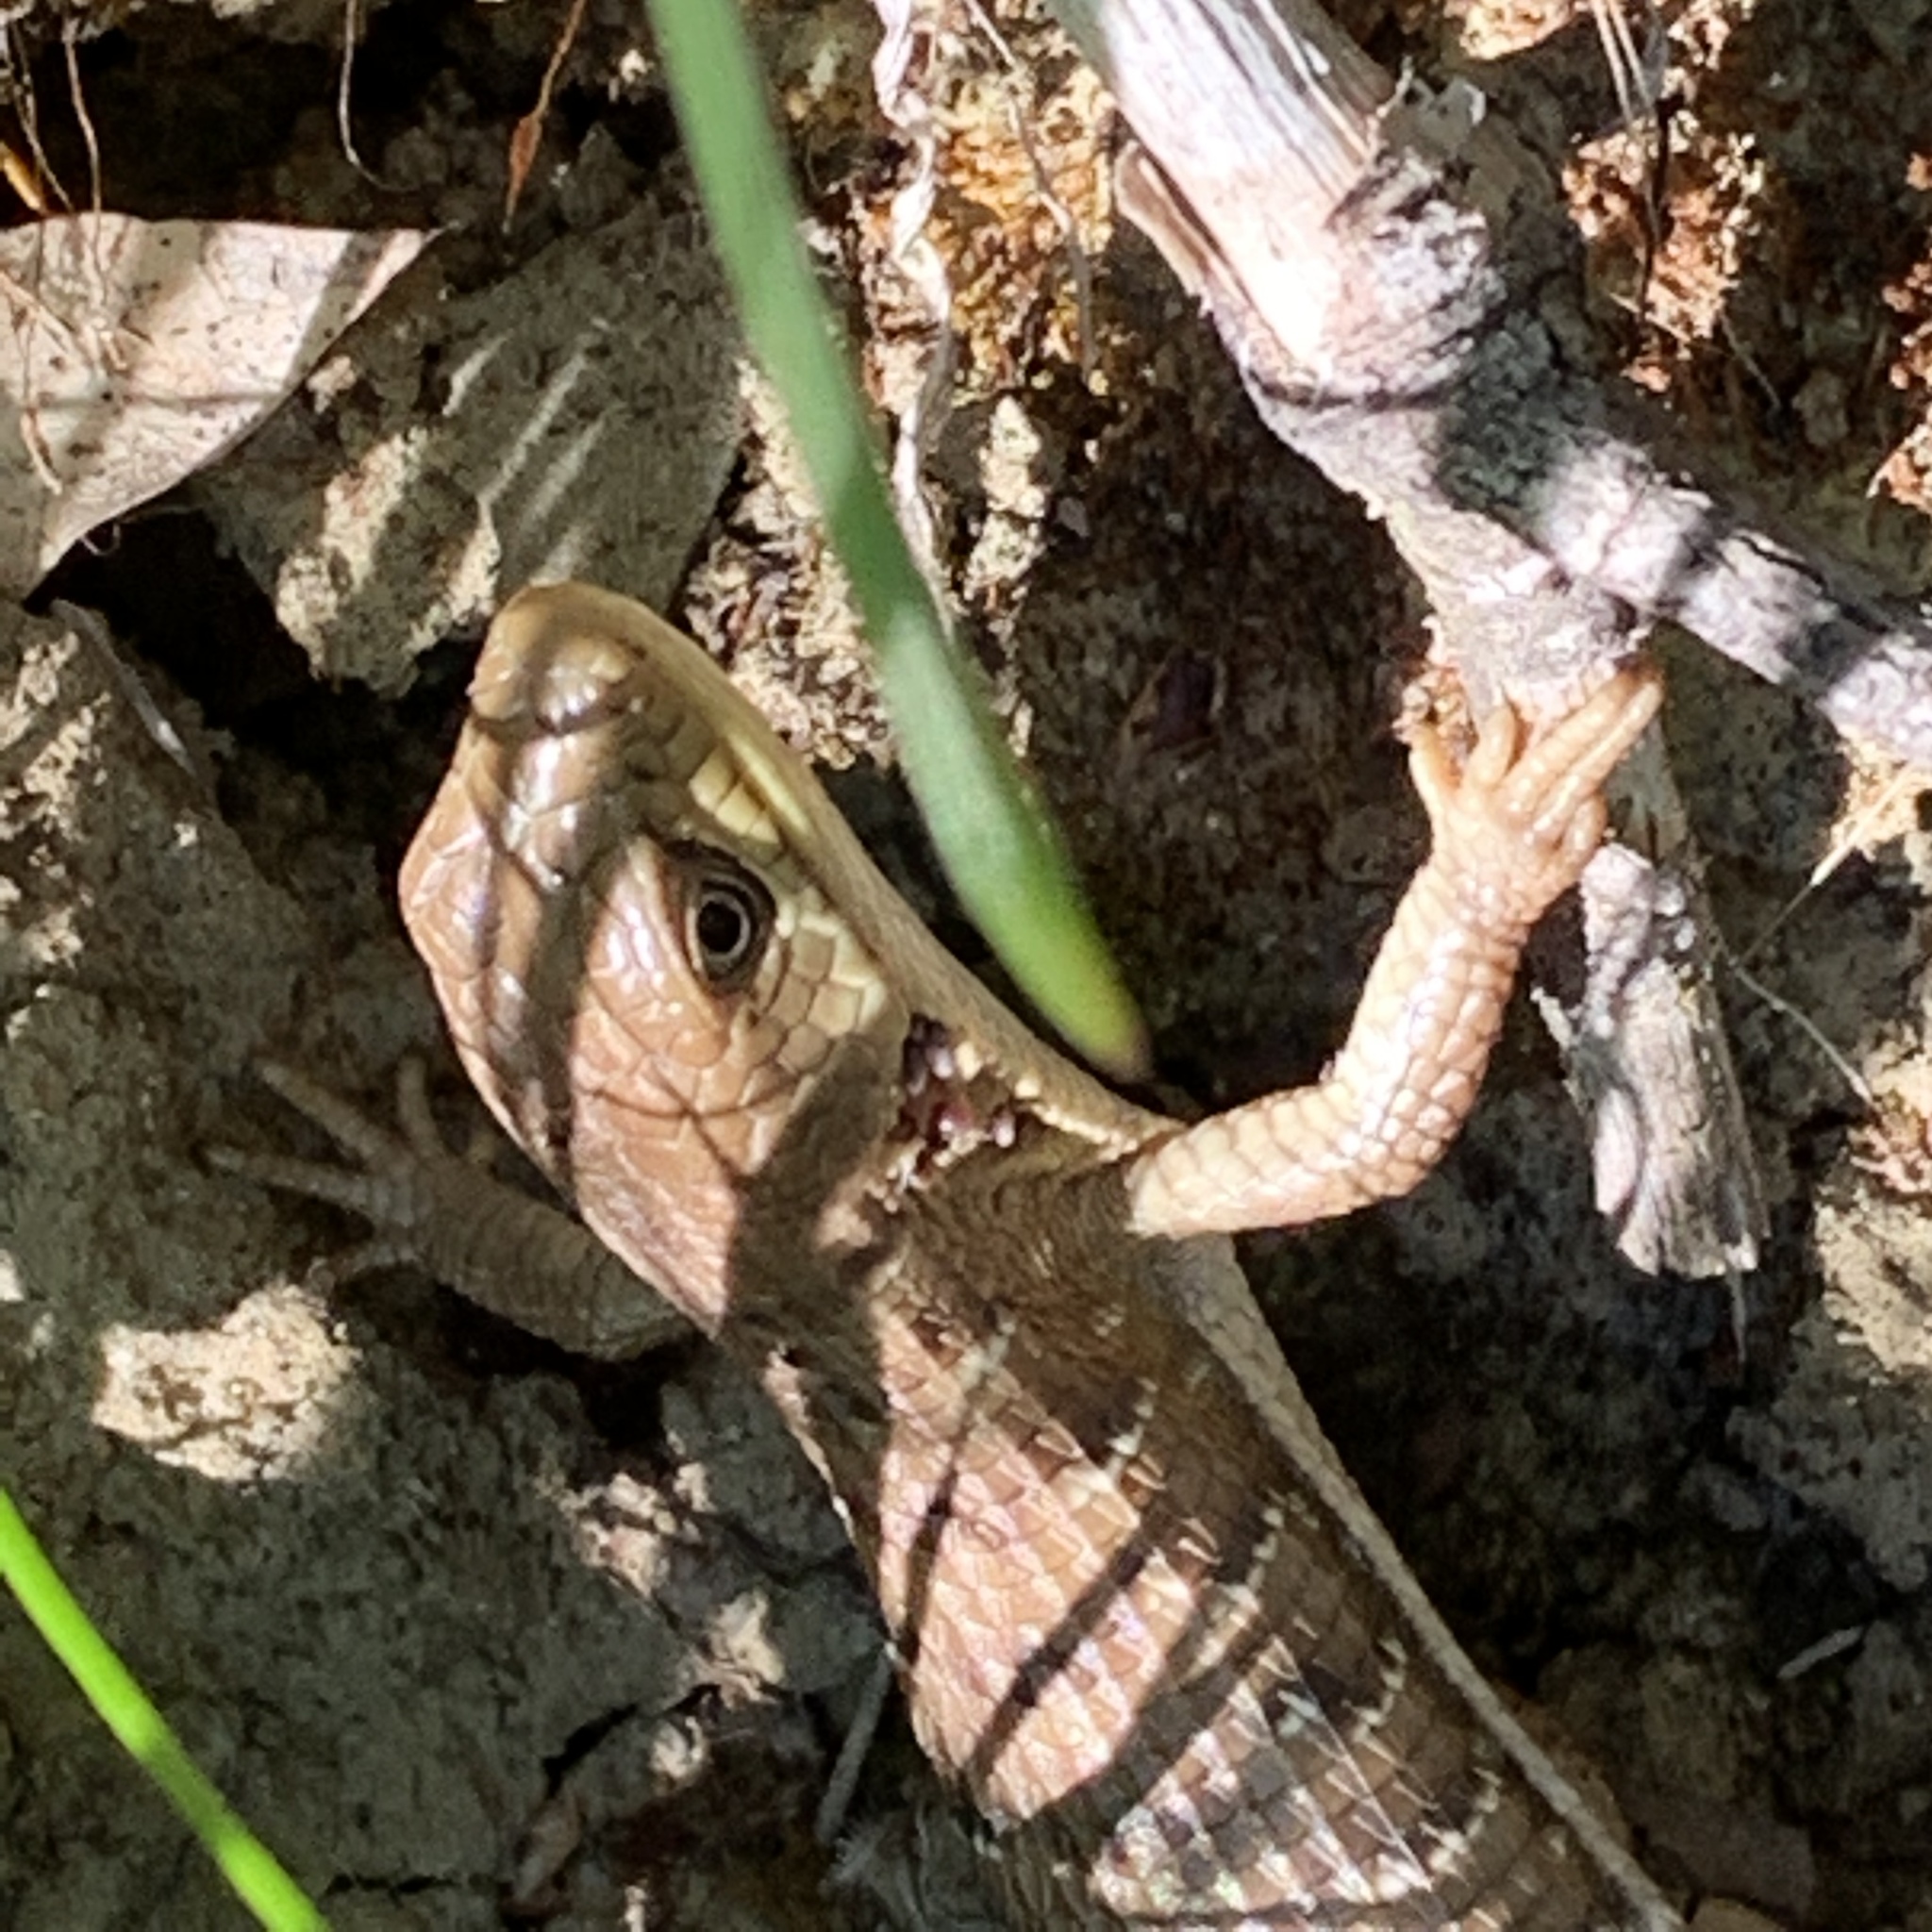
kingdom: Animalia
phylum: Chordata
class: Squamata
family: Anguidae
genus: Elgaria
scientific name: Elgaria multicarinata
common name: Southern alligator lizard
